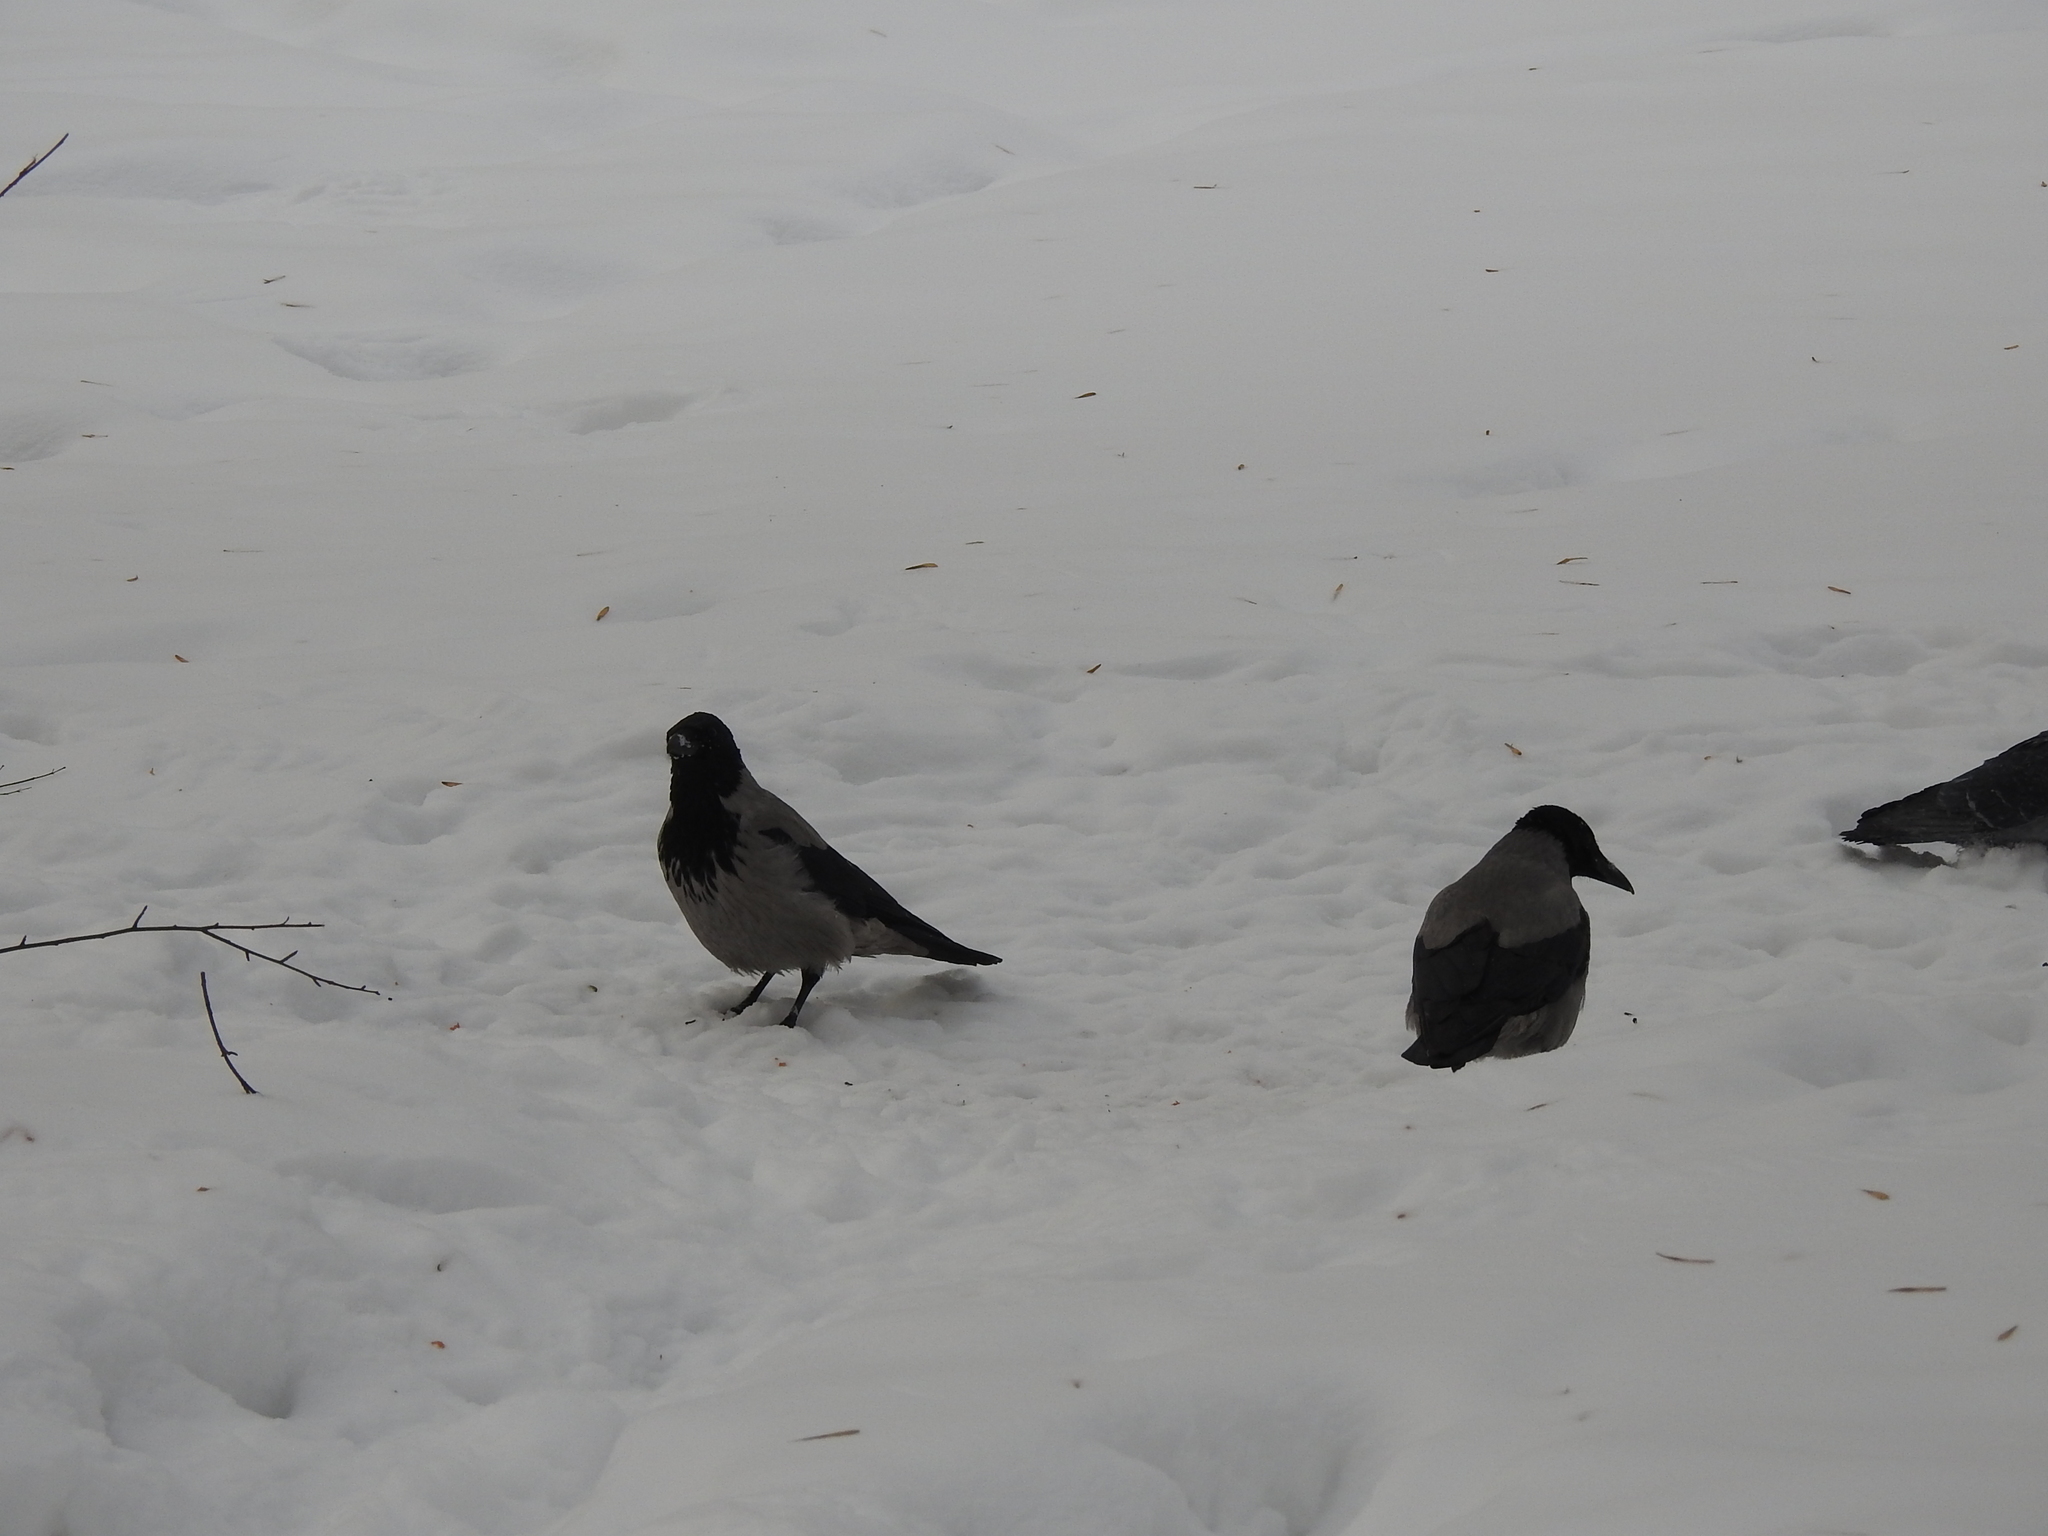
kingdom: Animalia
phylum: Chordata
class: Aves
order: Passeriformes
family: Corvidae
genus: Corvus
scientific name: Corvus cornix
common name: Hooded crow
